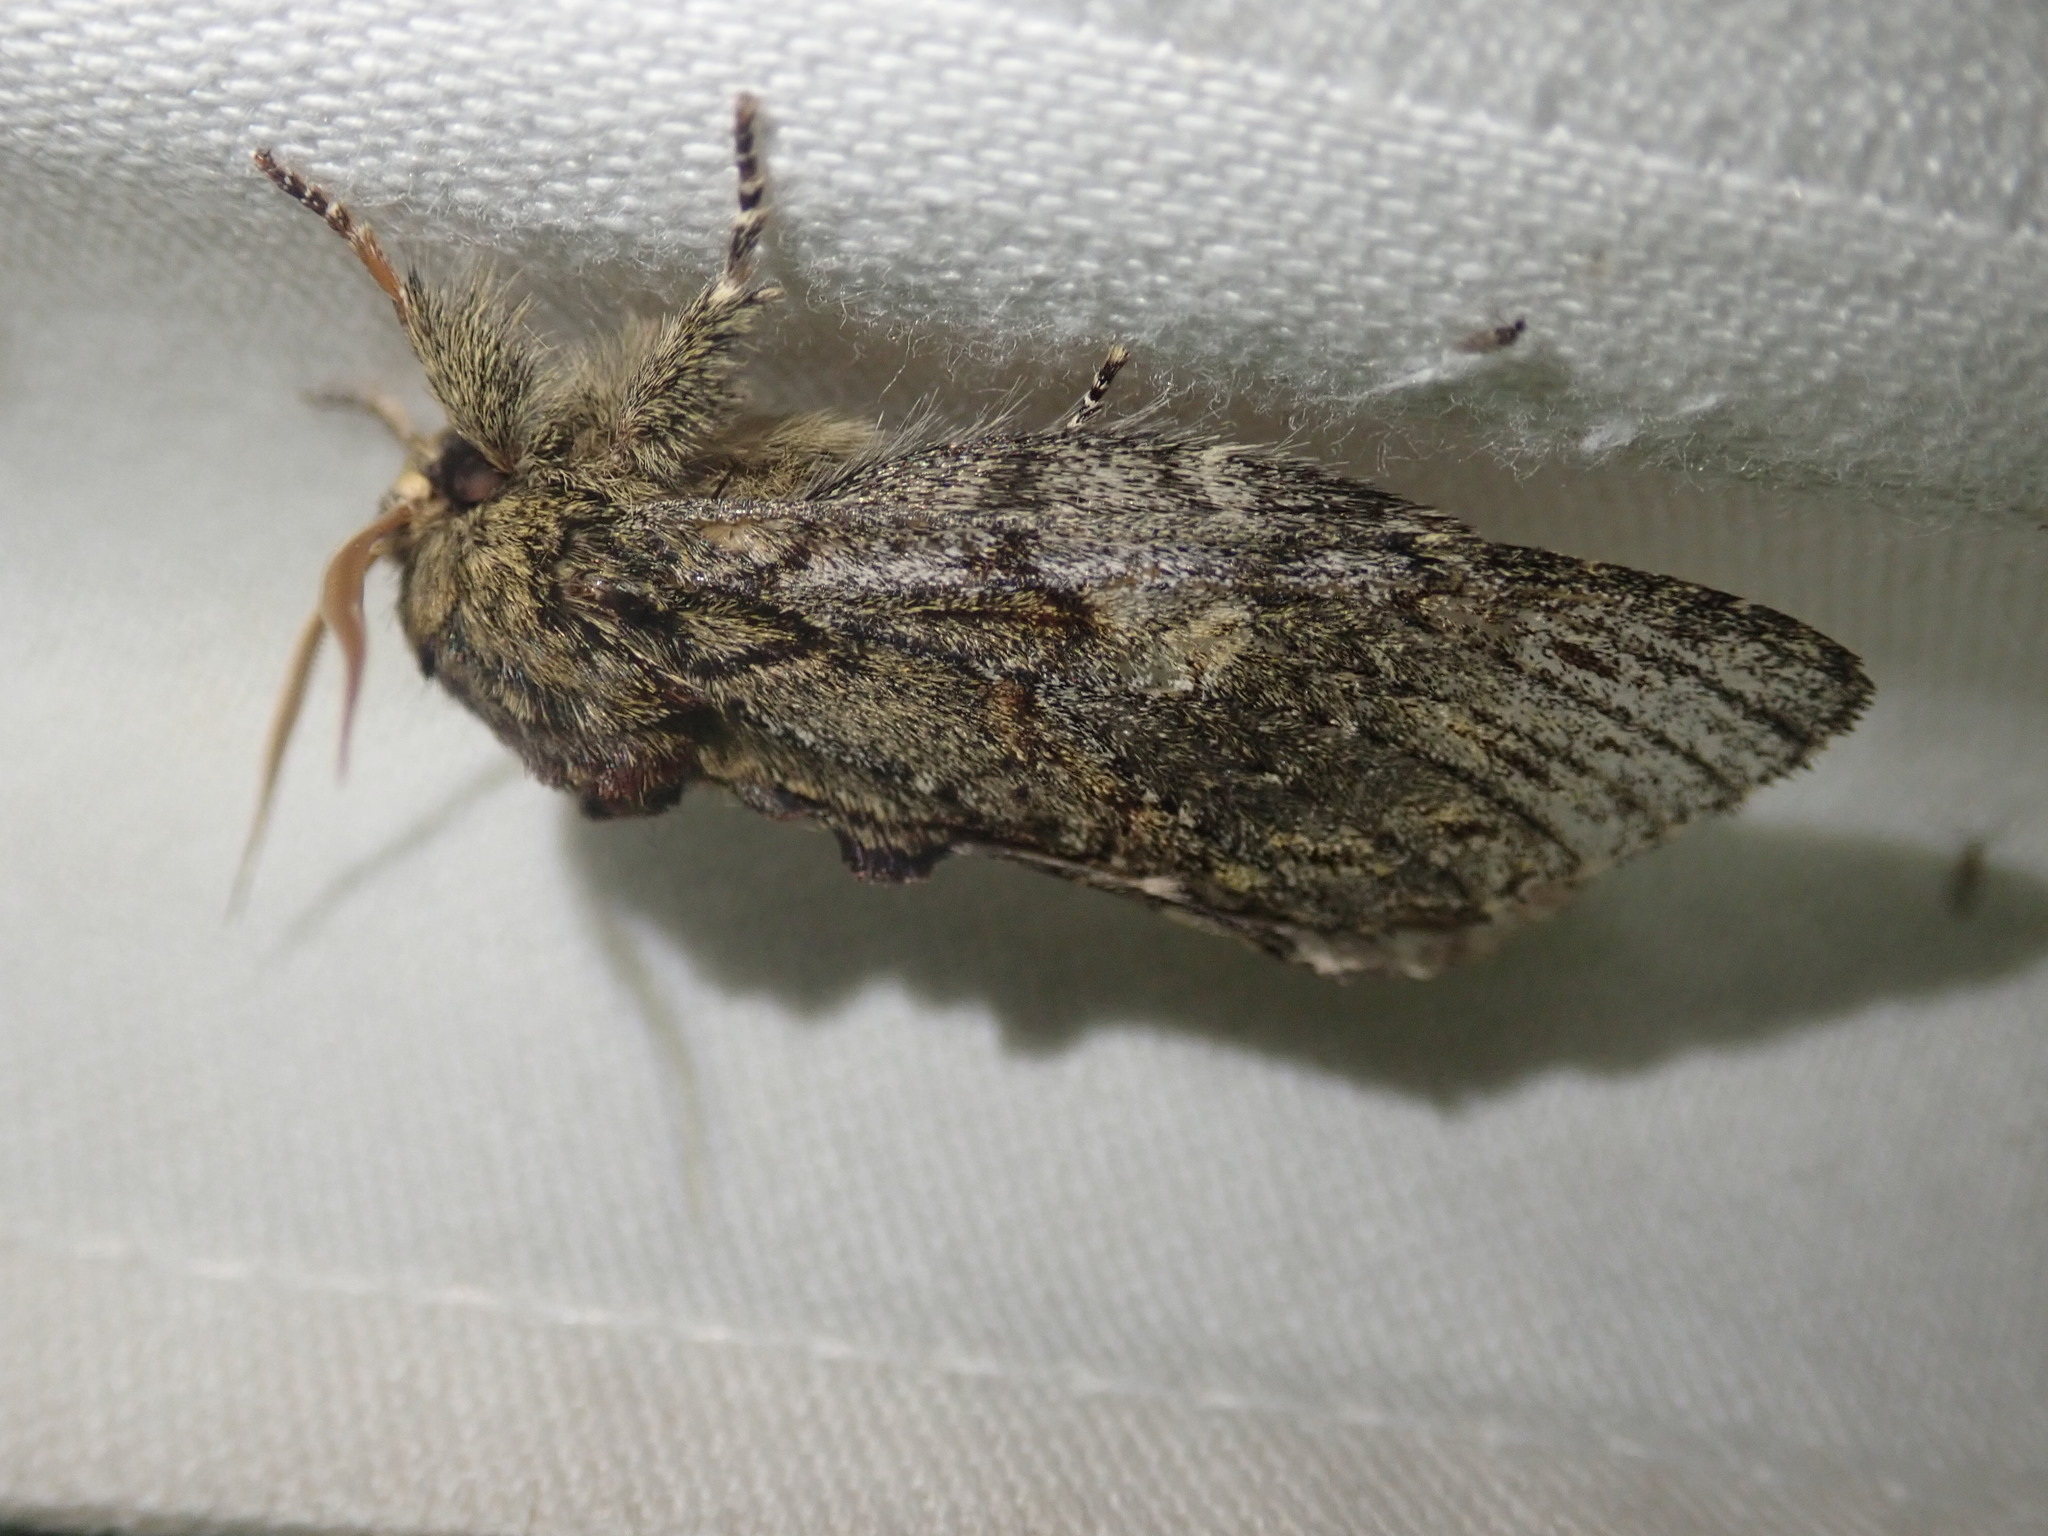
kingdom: Animalia
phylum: Arthropoda
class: Insecta
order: Lepidoptera
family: Notodontidae
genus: Peridea
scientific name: Peridea anceps
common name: Great prominent
